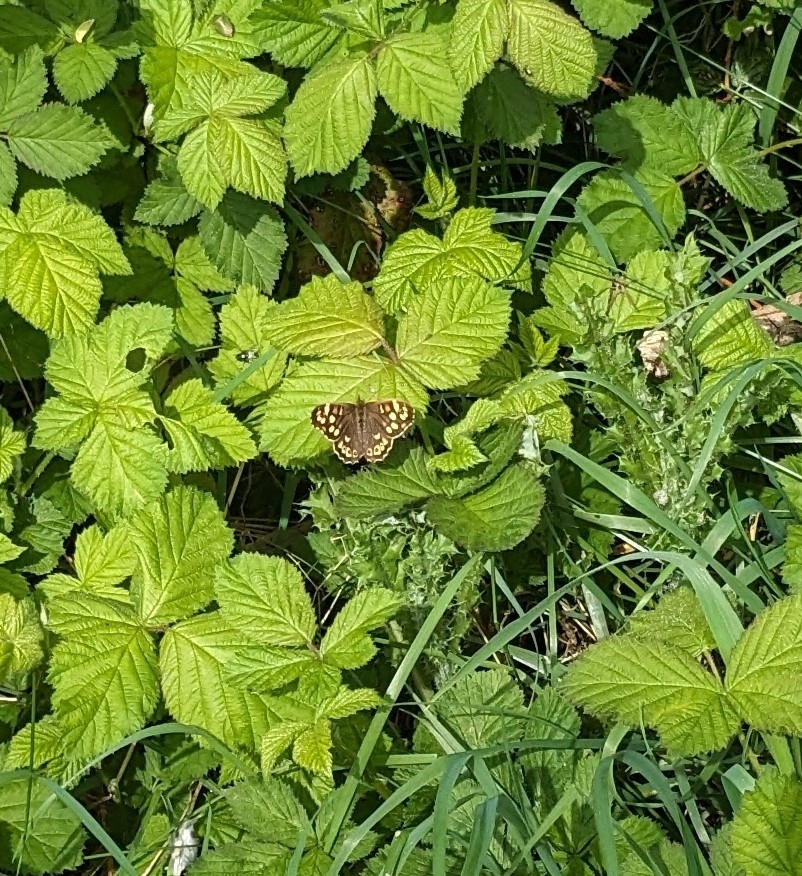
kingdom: Animalia
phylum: Arthropoda
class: Insecta
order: Lepidoptera
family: Nymphalidae
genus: Pararge
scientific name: Pararge aegeria
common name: Speckled wood
